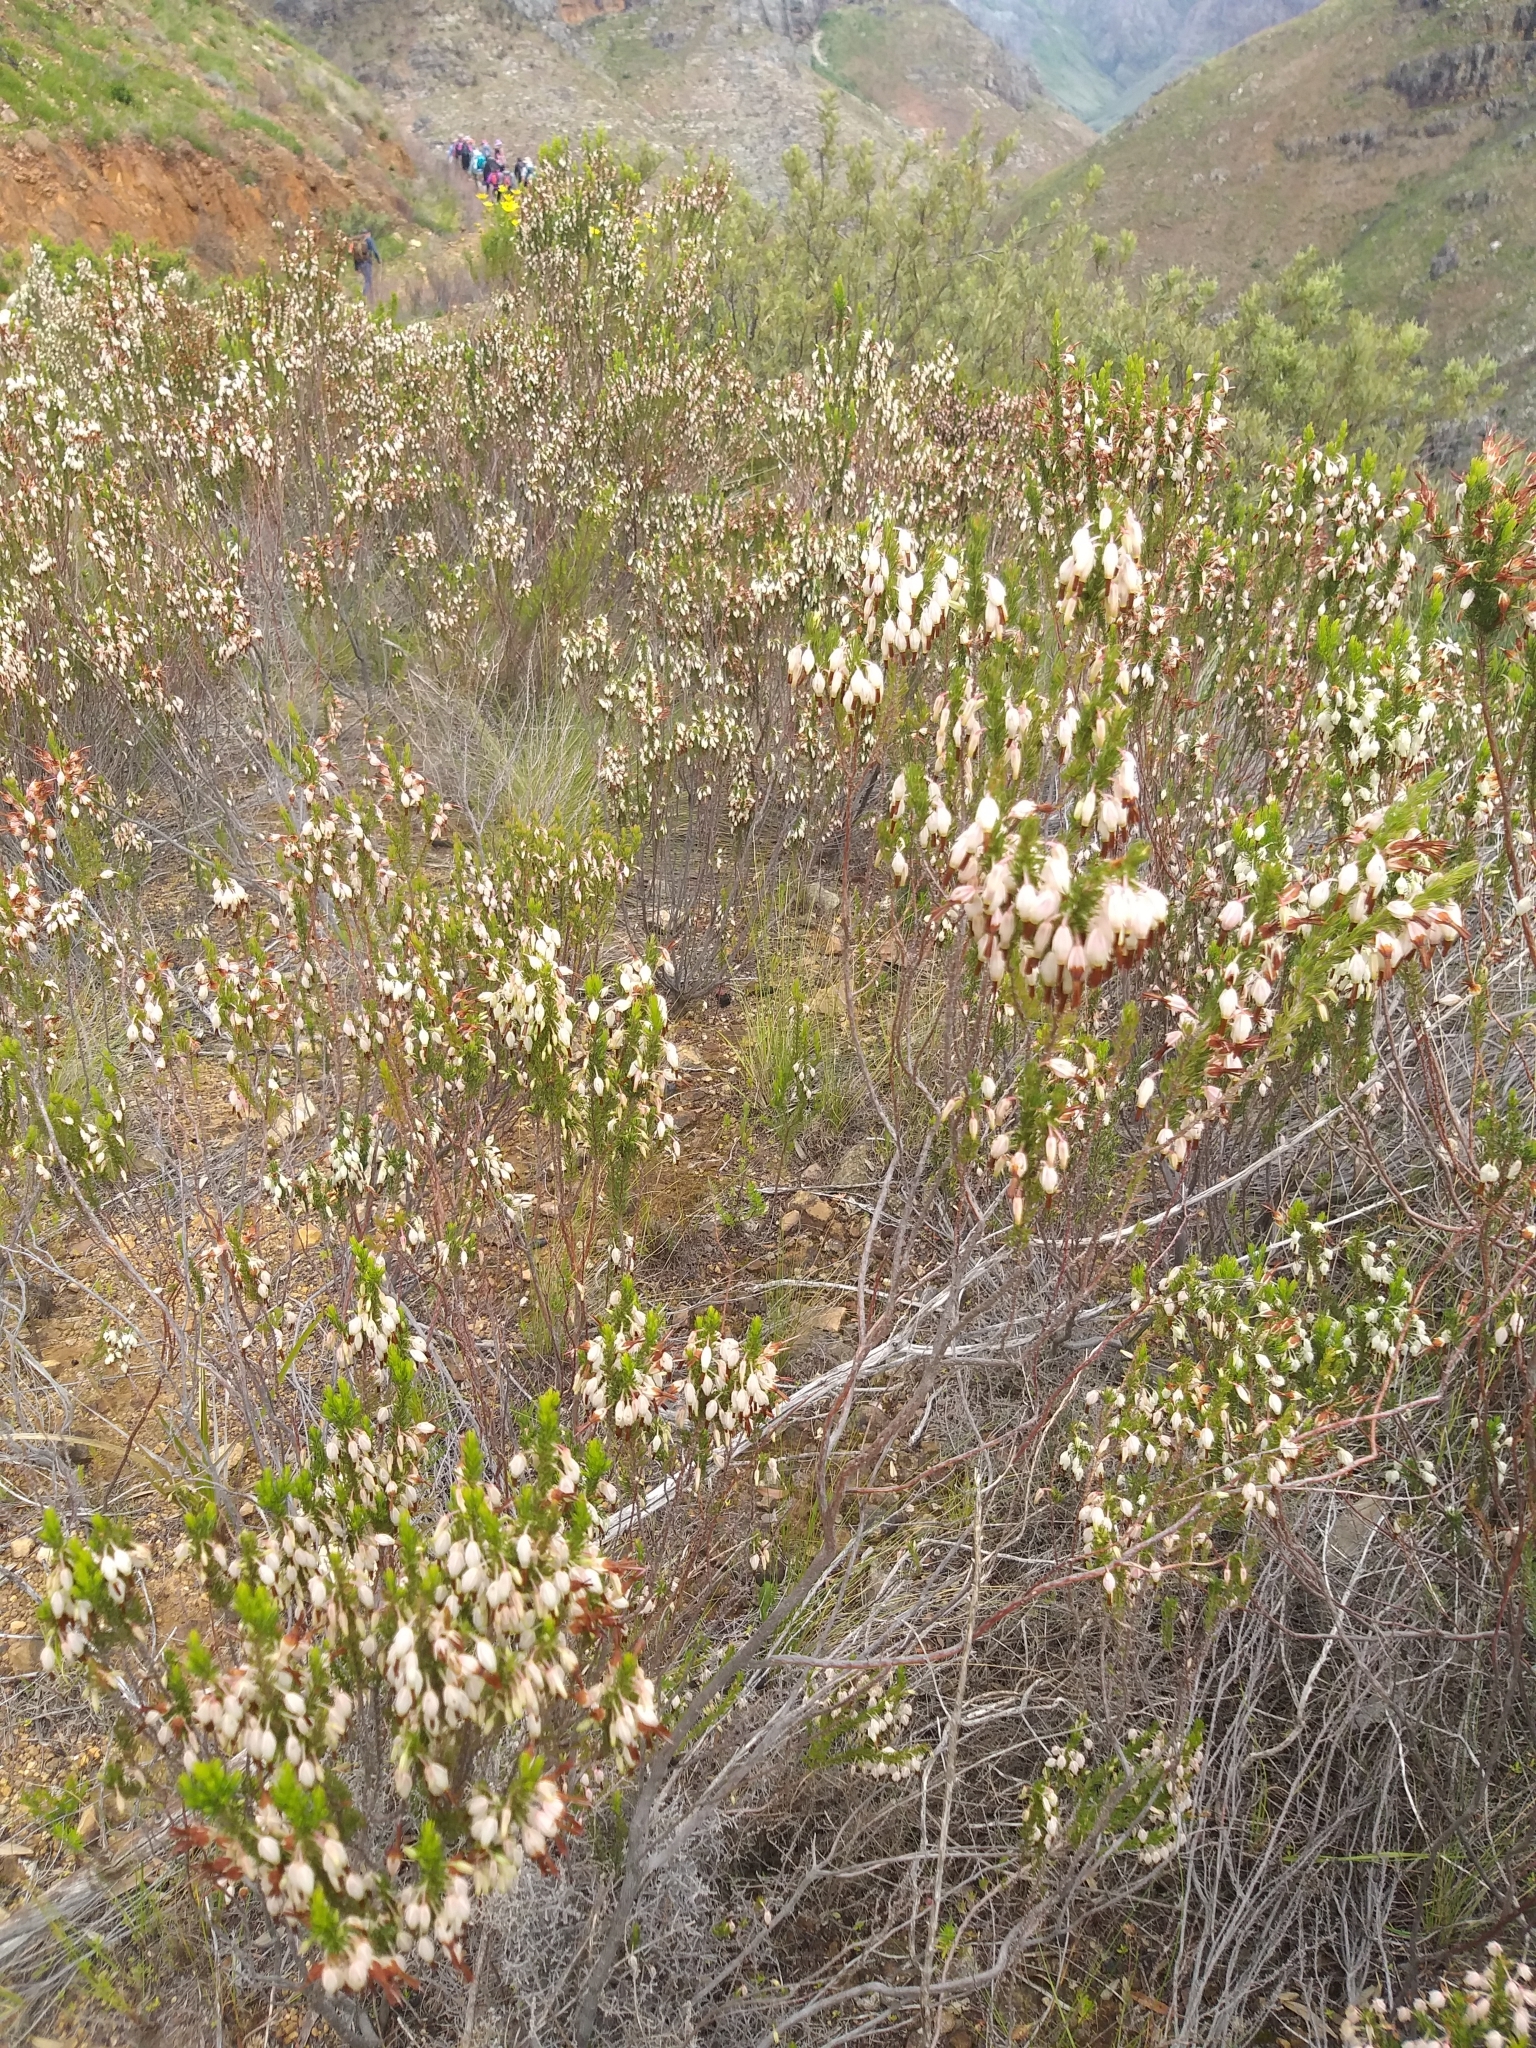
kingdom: Plantae
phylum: Tracheophyta
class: Magnoliopsida
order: Ericales
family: Ericaceae
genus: Erica
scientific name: Erica plukenetii
